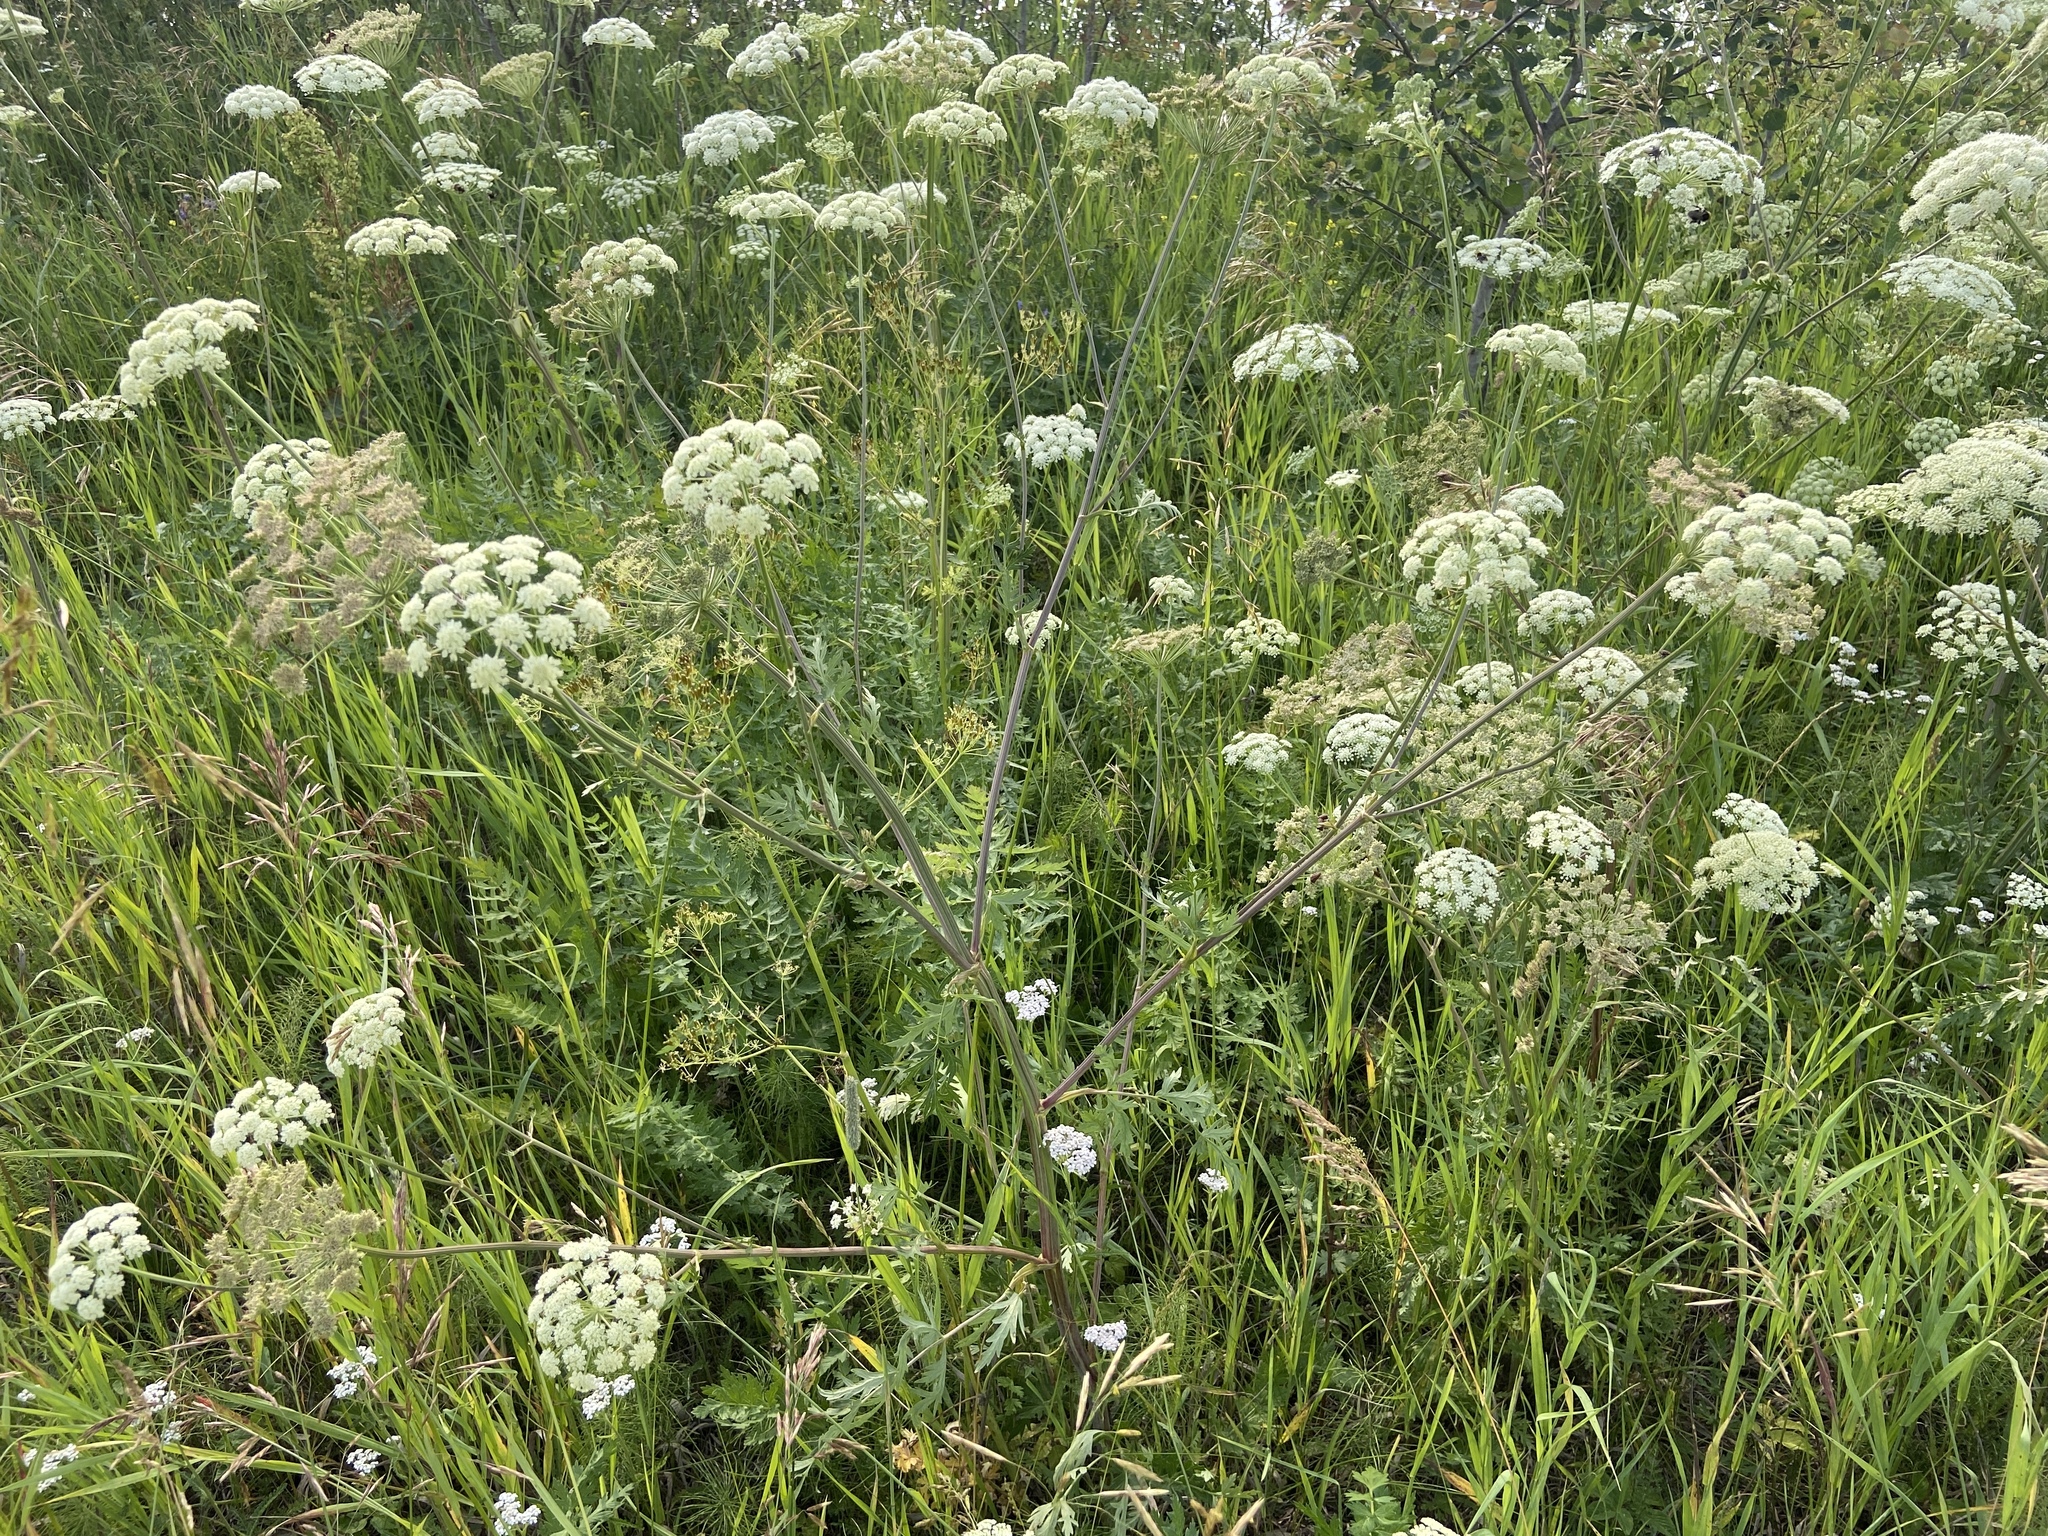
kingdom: Plantae
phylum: Tracheophyta
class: Magnoliopsida
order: Apiales
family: Apiaceae
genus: Seseli
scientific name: Seseli libanotis
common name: Mooncarrot
